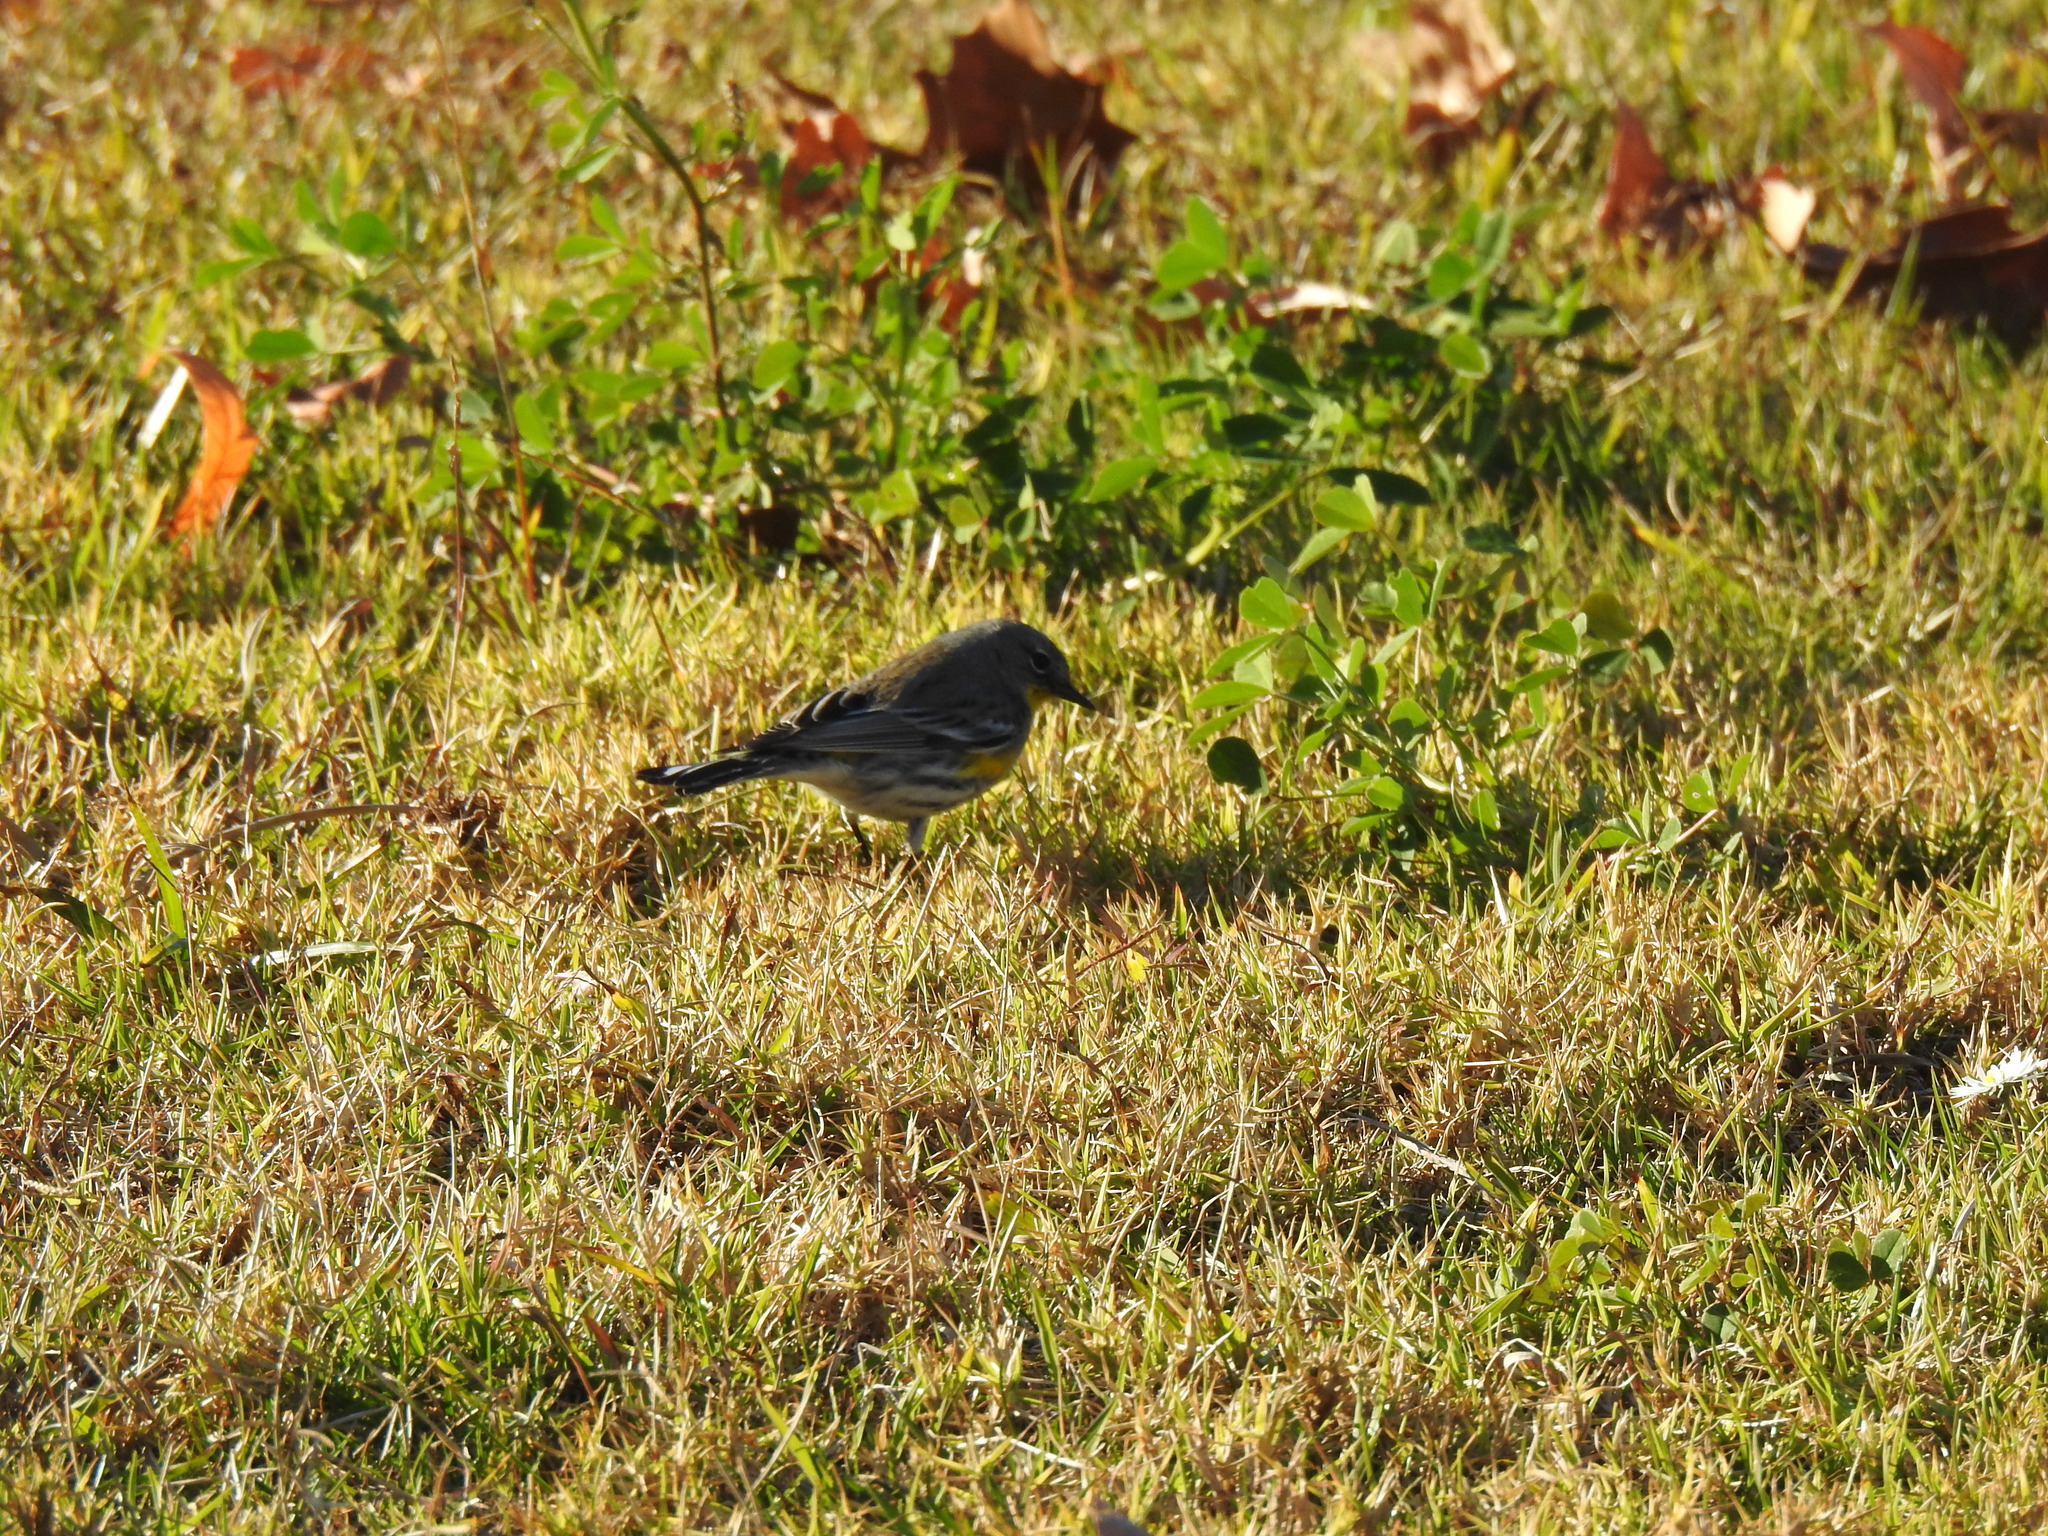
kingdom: Animalia
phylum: Chordata
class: Aves
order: Passeriformes
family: Parulidae
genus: Setophaga
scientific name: Setophaga coronata
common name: Myrtle warbler
